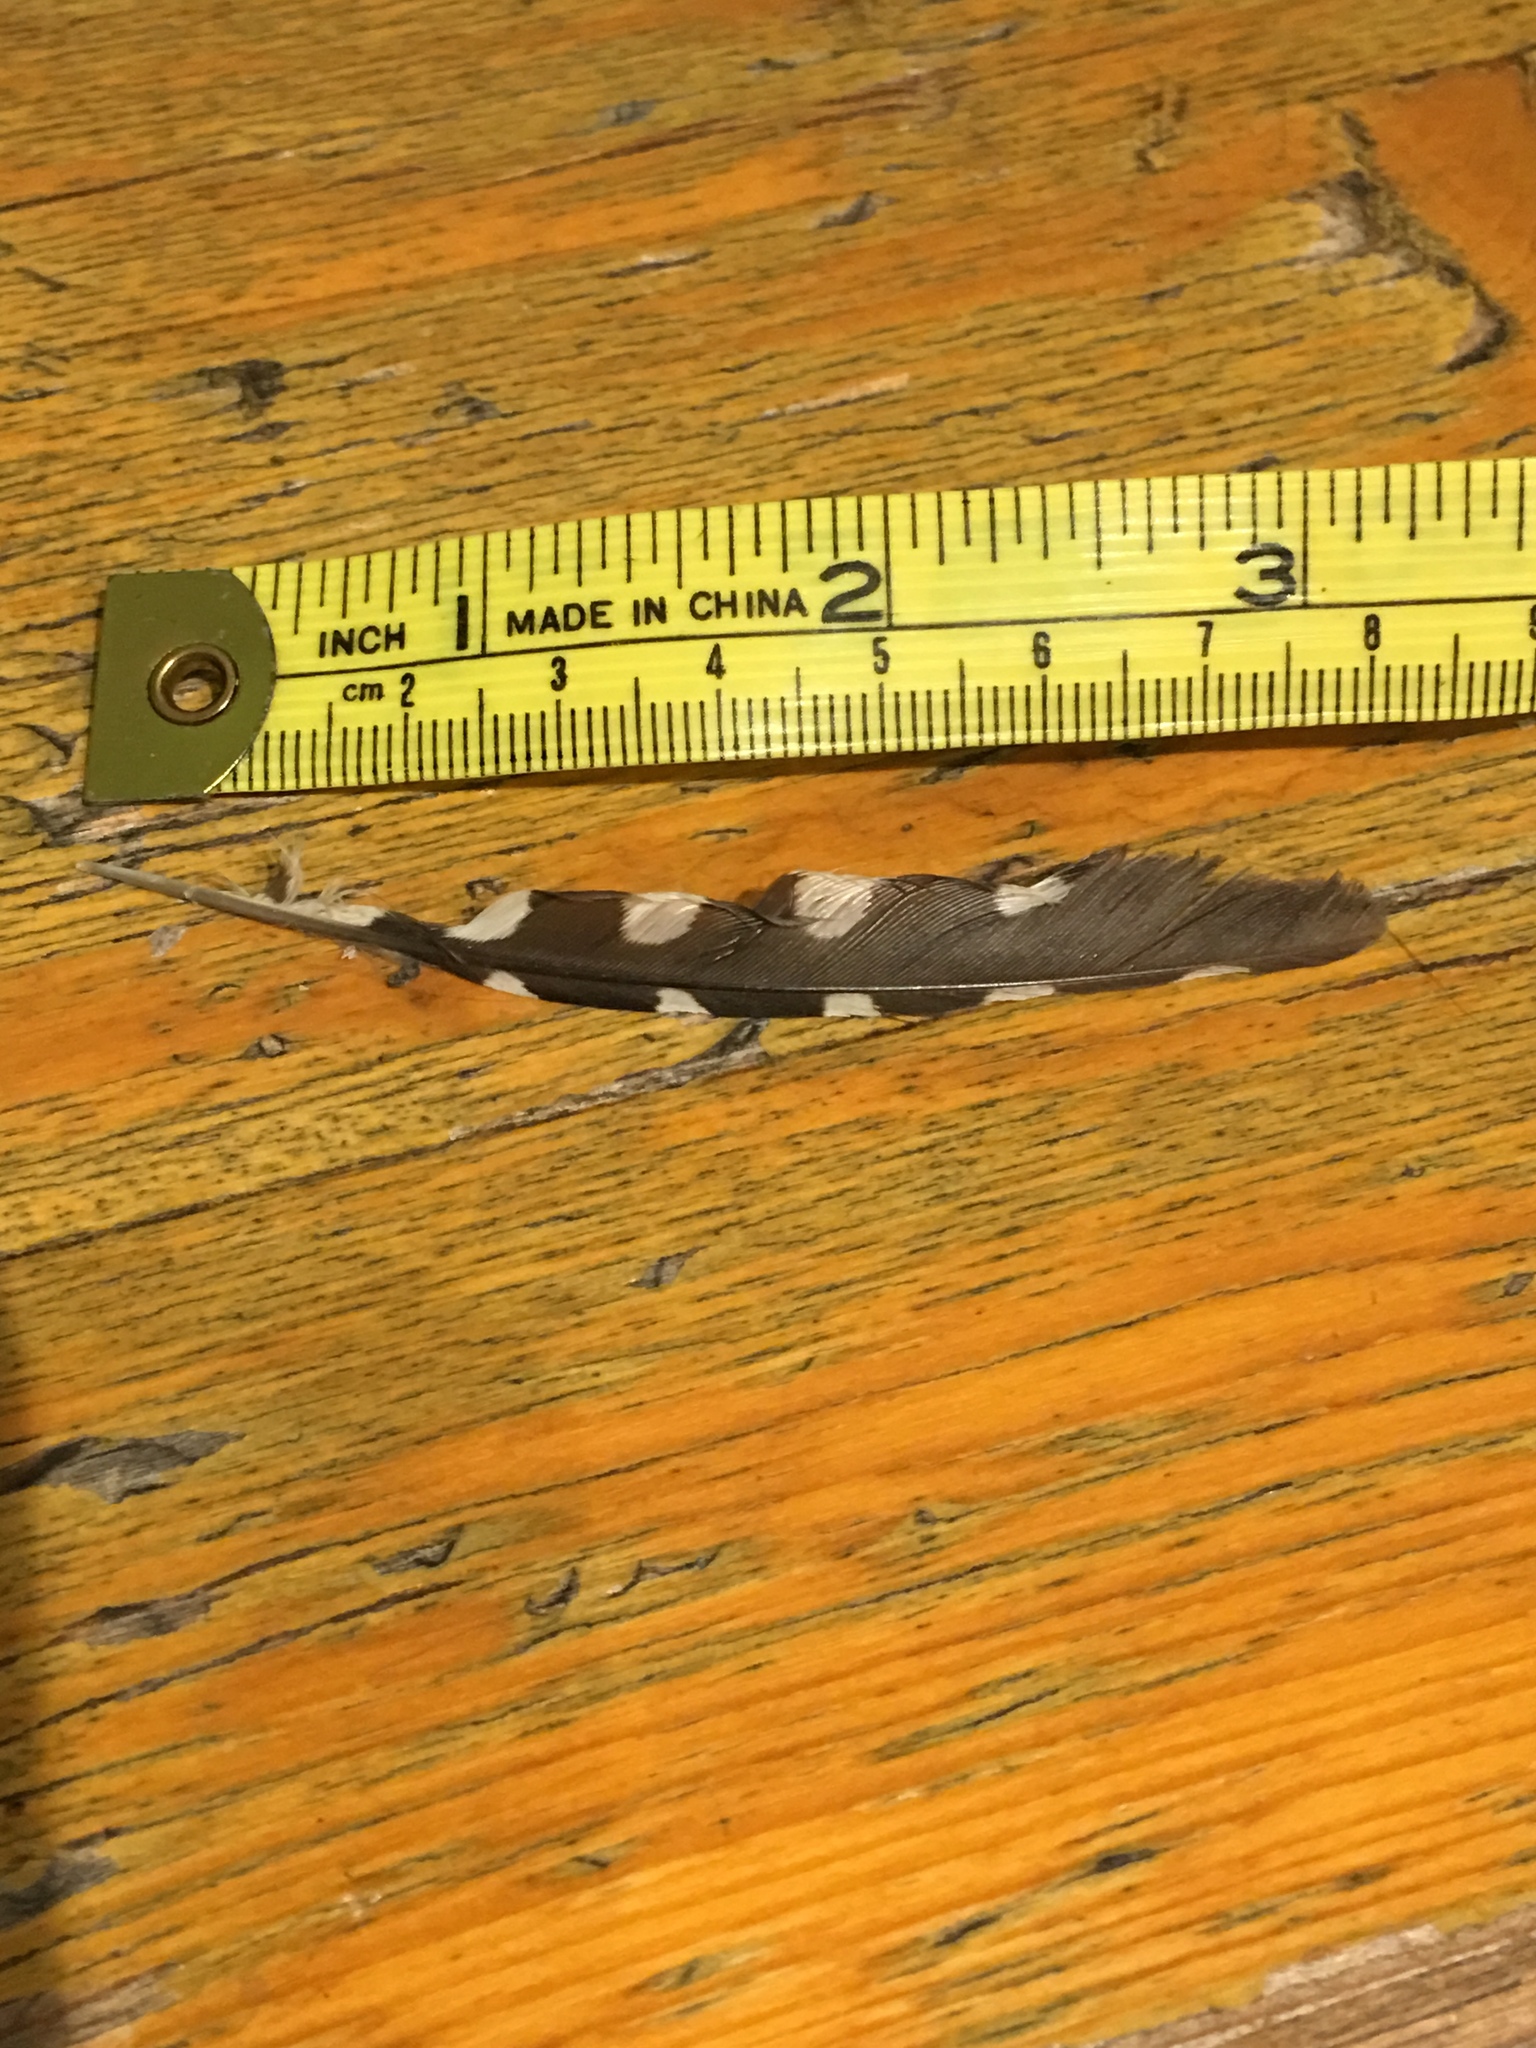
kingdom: Animalia
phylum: Chordata
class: Aves
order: Piciformes
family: Picidae
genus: Dryobates
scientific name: Dryobates pubescens
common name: Downy woodpecker
